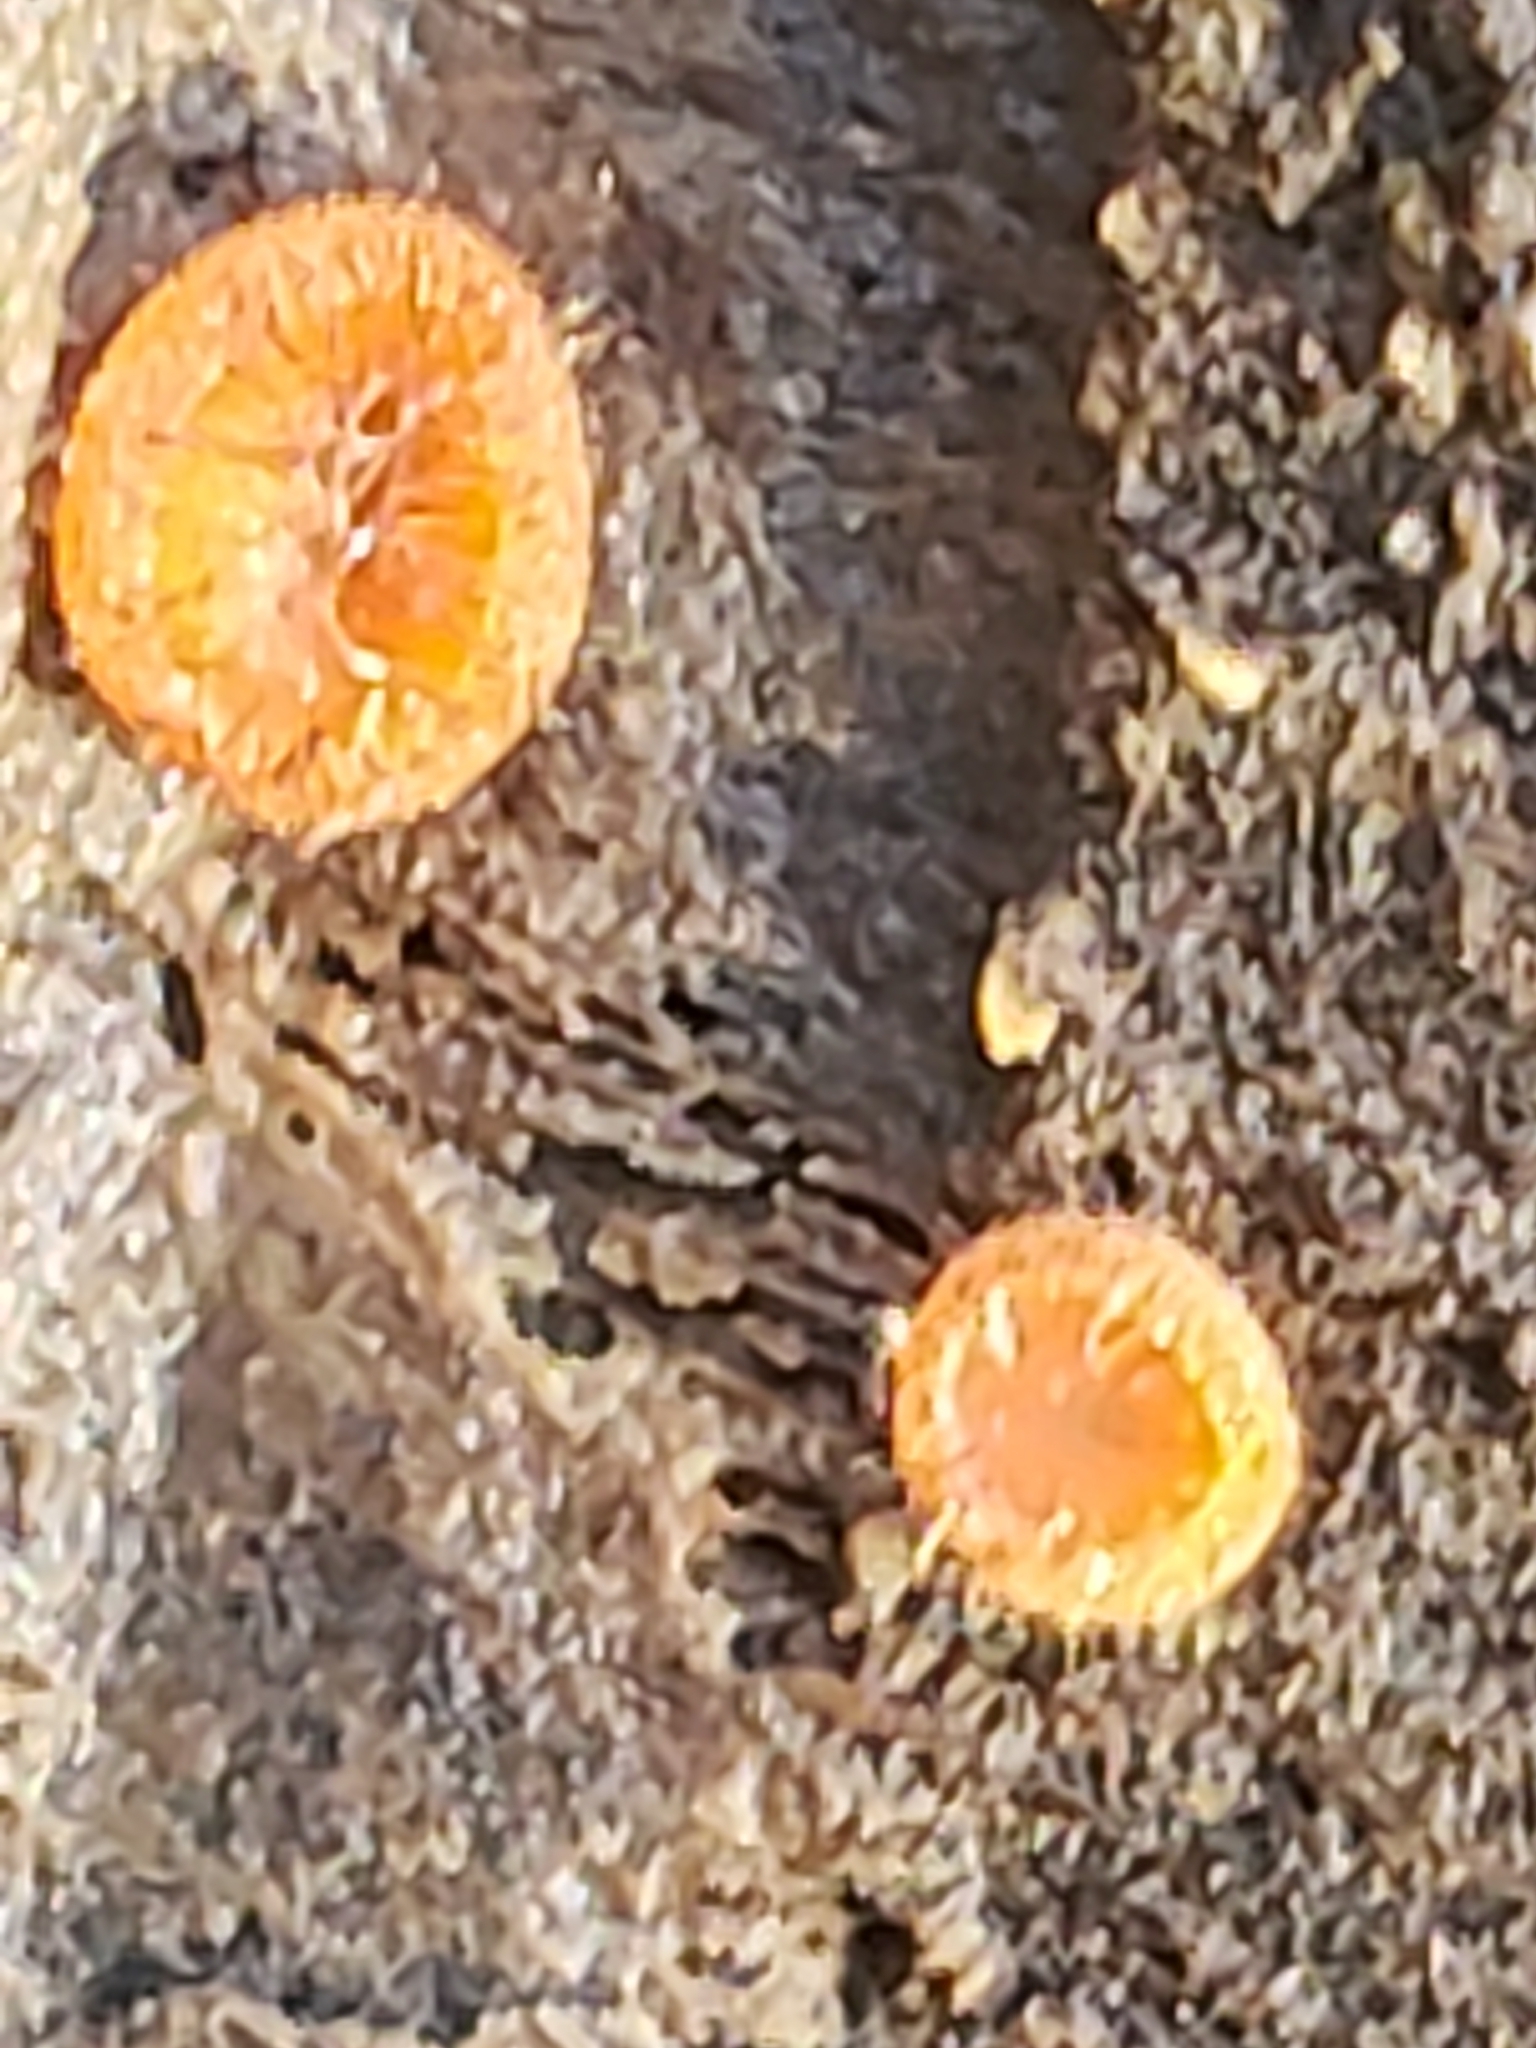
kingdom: Fungi
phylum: Ascomycota
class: Pezizomycetes
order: Pezizales
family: Pyronemataceae
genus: Scutellinia
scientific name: Scutellinia
